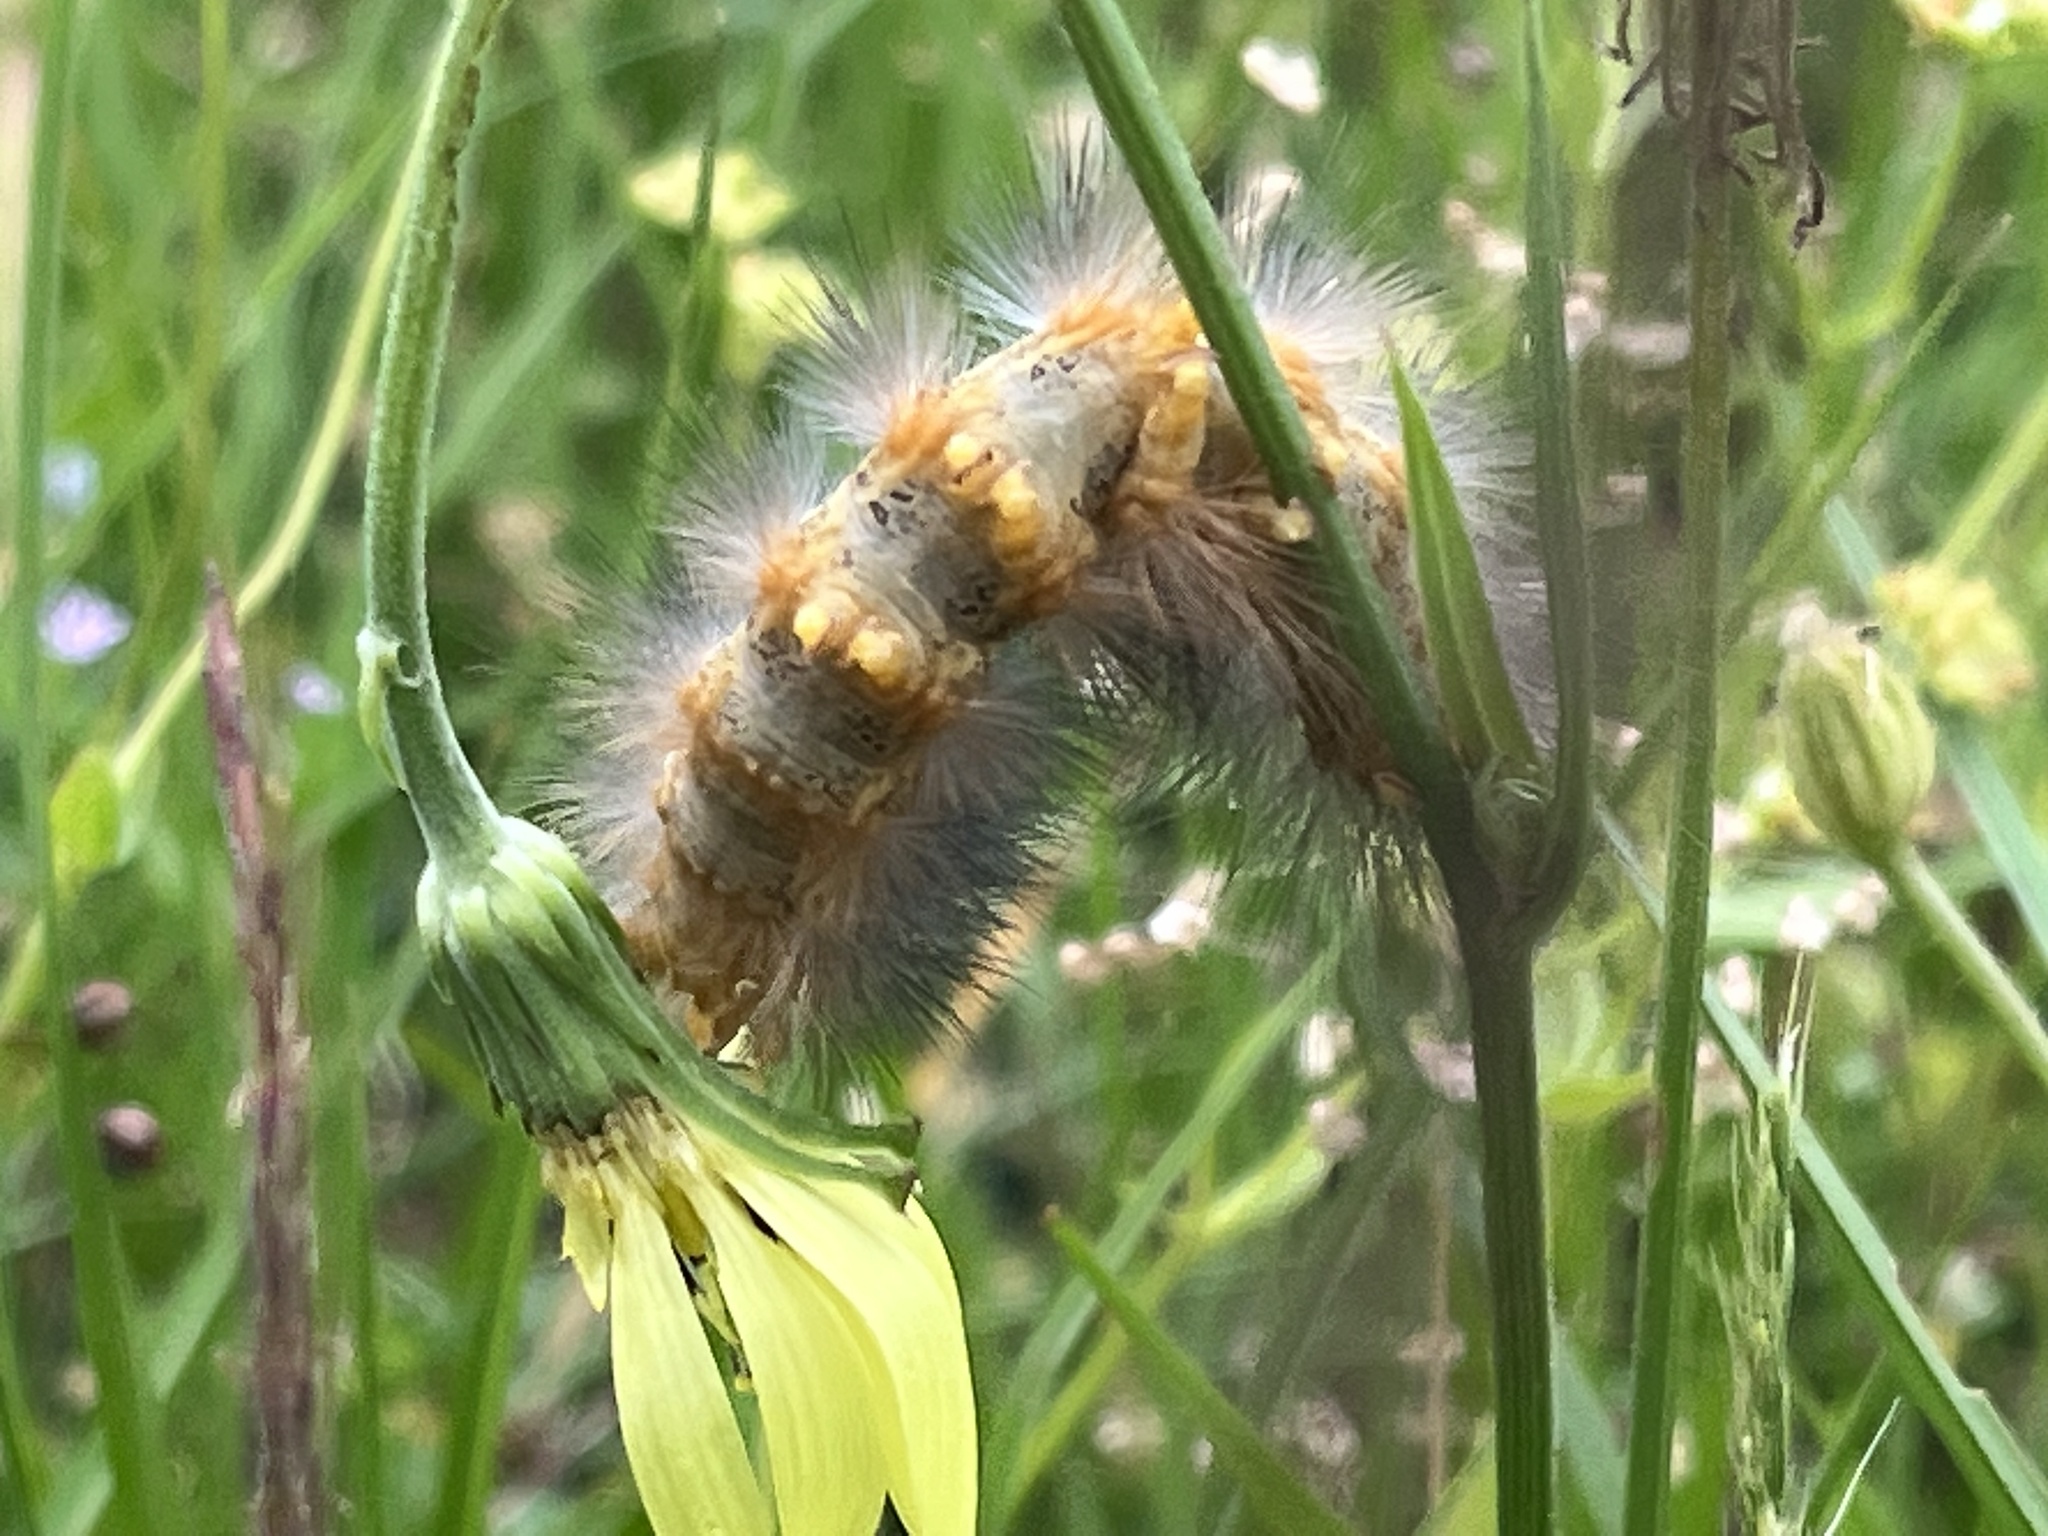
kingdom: Animalia
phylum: Arthropoda
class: Insecta
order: Lepidoptera
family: Erebidae
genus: Estigmene
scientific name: Estigmene acrea
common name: Salt marsh moth
